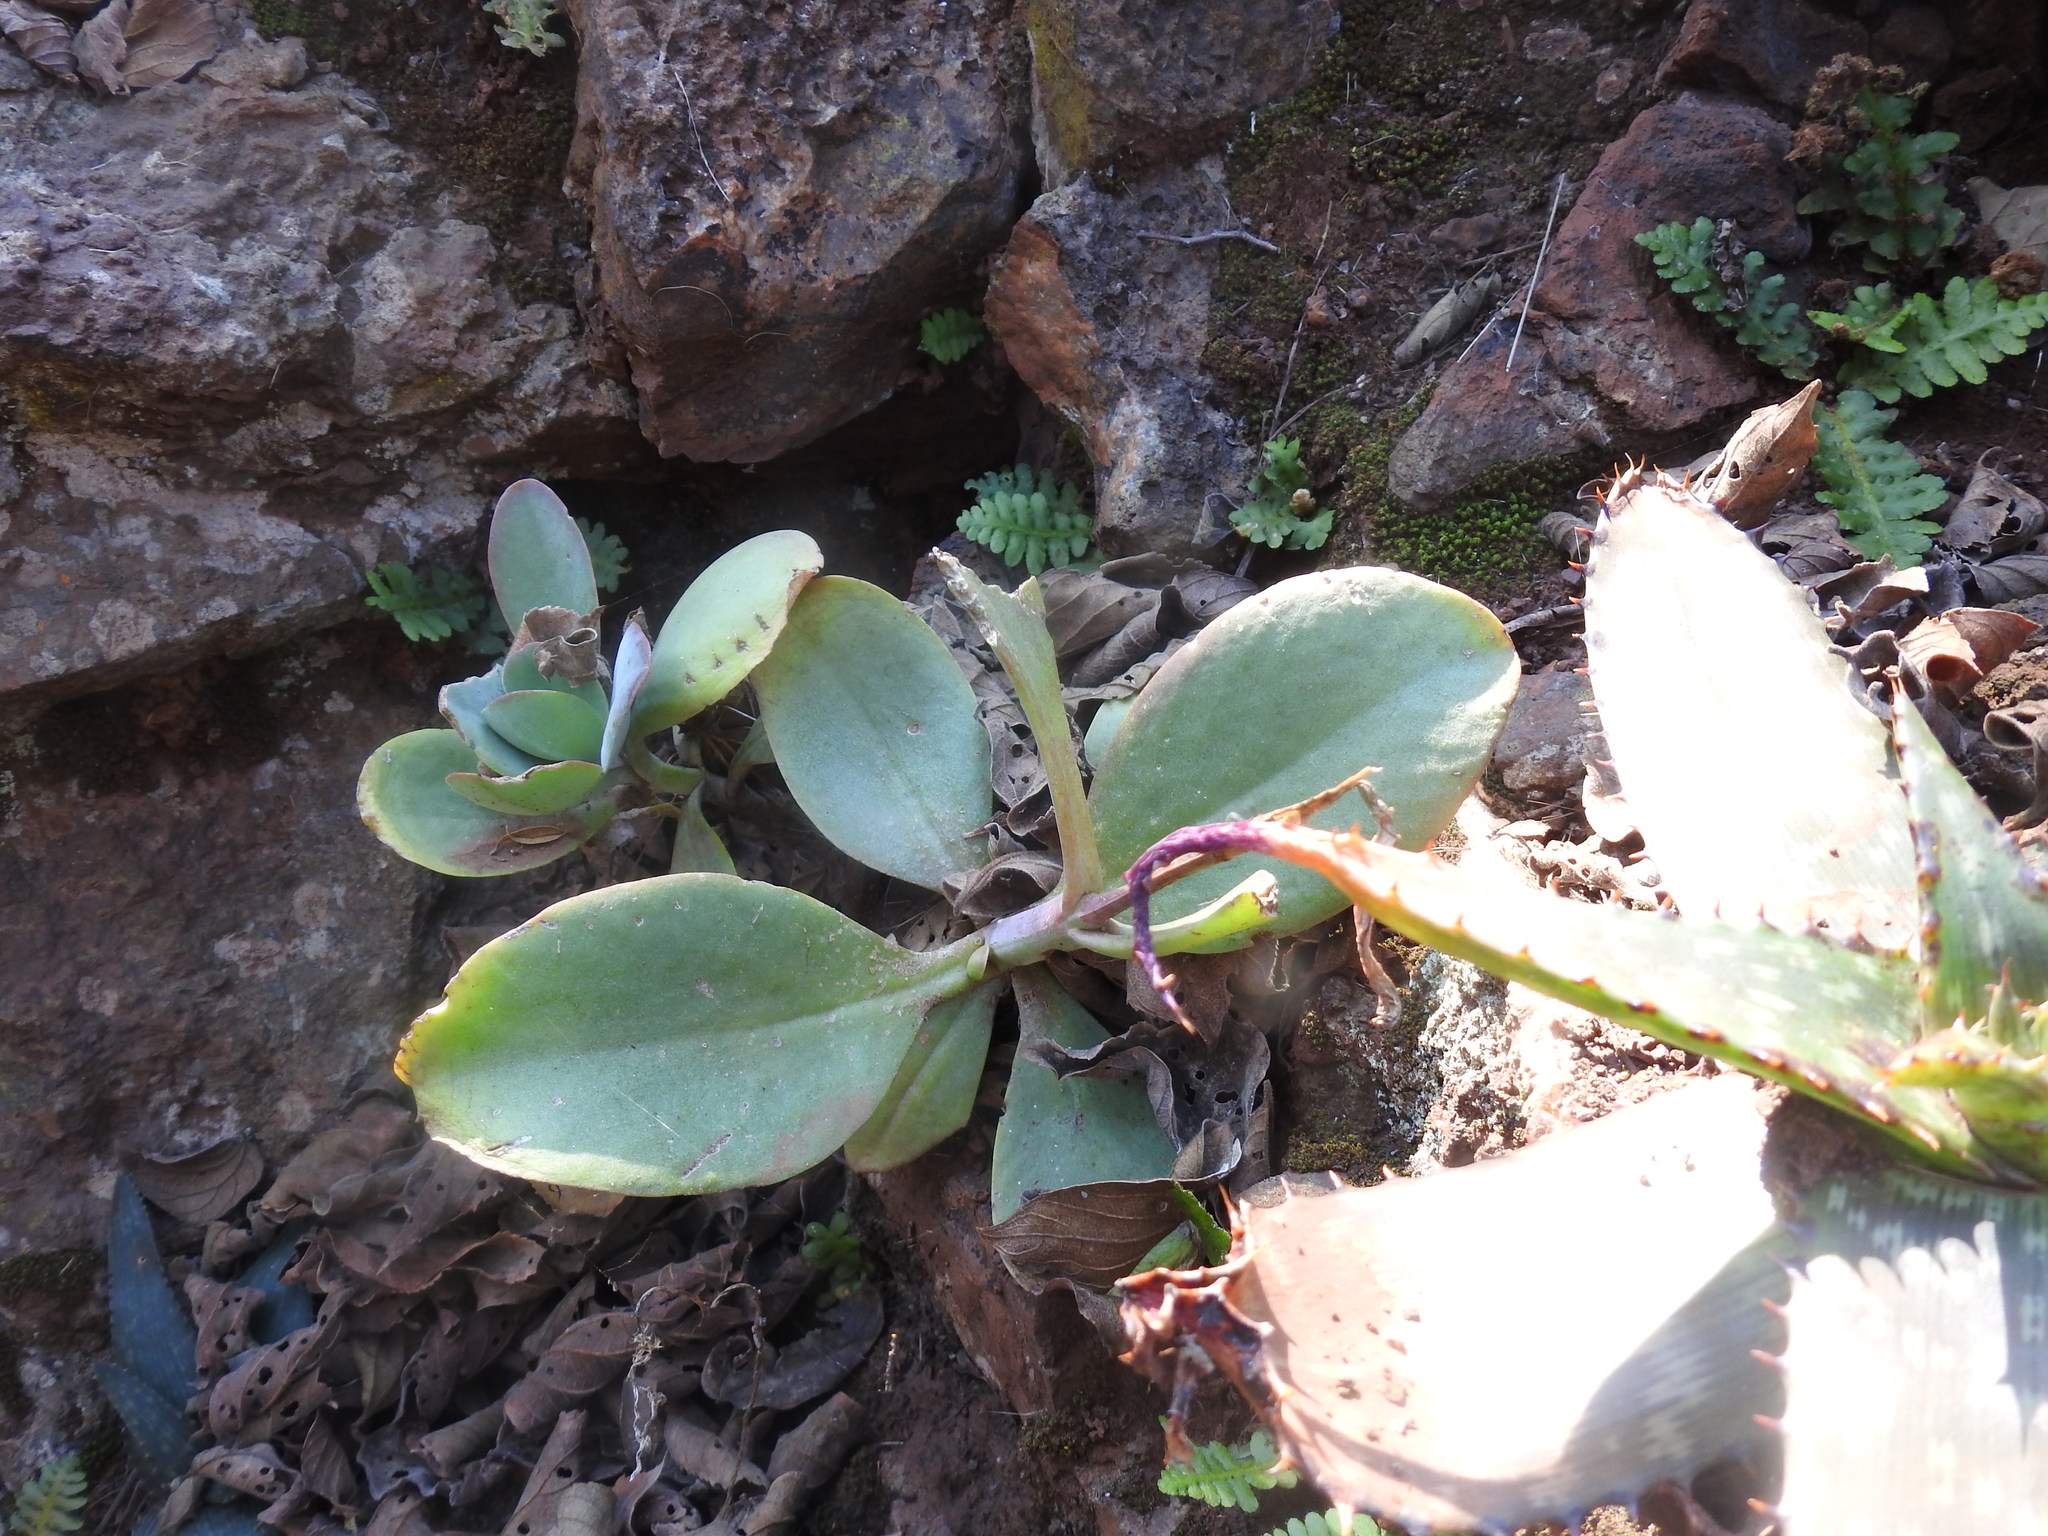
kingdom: Plantae
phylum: Tracheophyta
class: Magnoliopsida
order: Saxifragales
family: Crassulaceae
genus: Kalanchoe
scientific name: Kalanchoe rotundifolia
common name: Common kalanchoe
